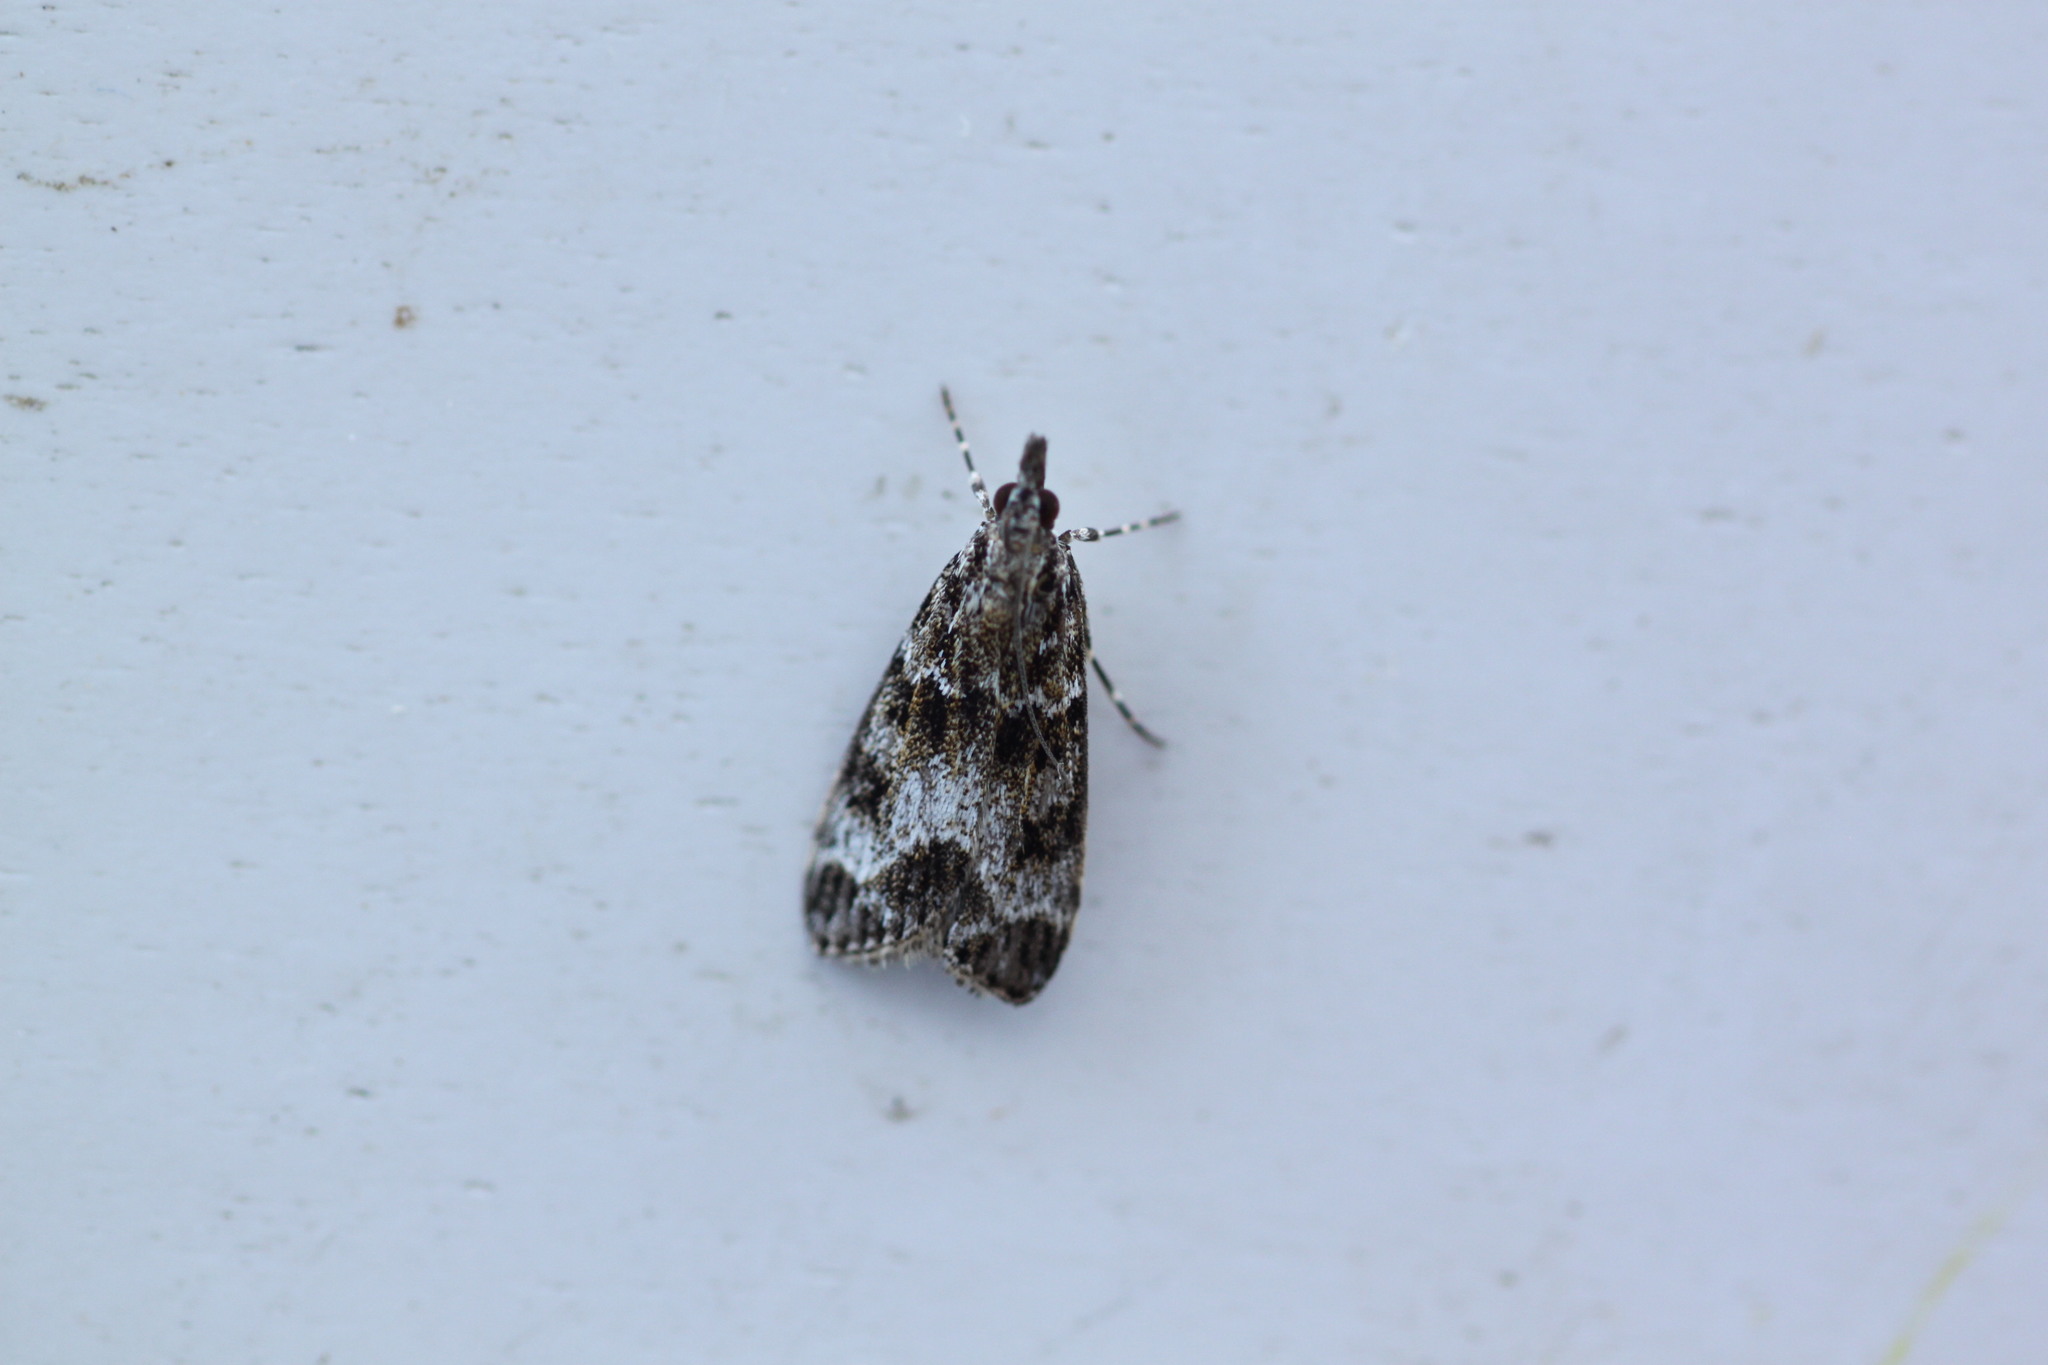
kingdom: Animalia
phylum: Arthropoda
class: Insecta
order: Lepidoptera
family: Crambidae
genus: Eudonia
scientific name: Eudonia mercurella
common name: Small grey
